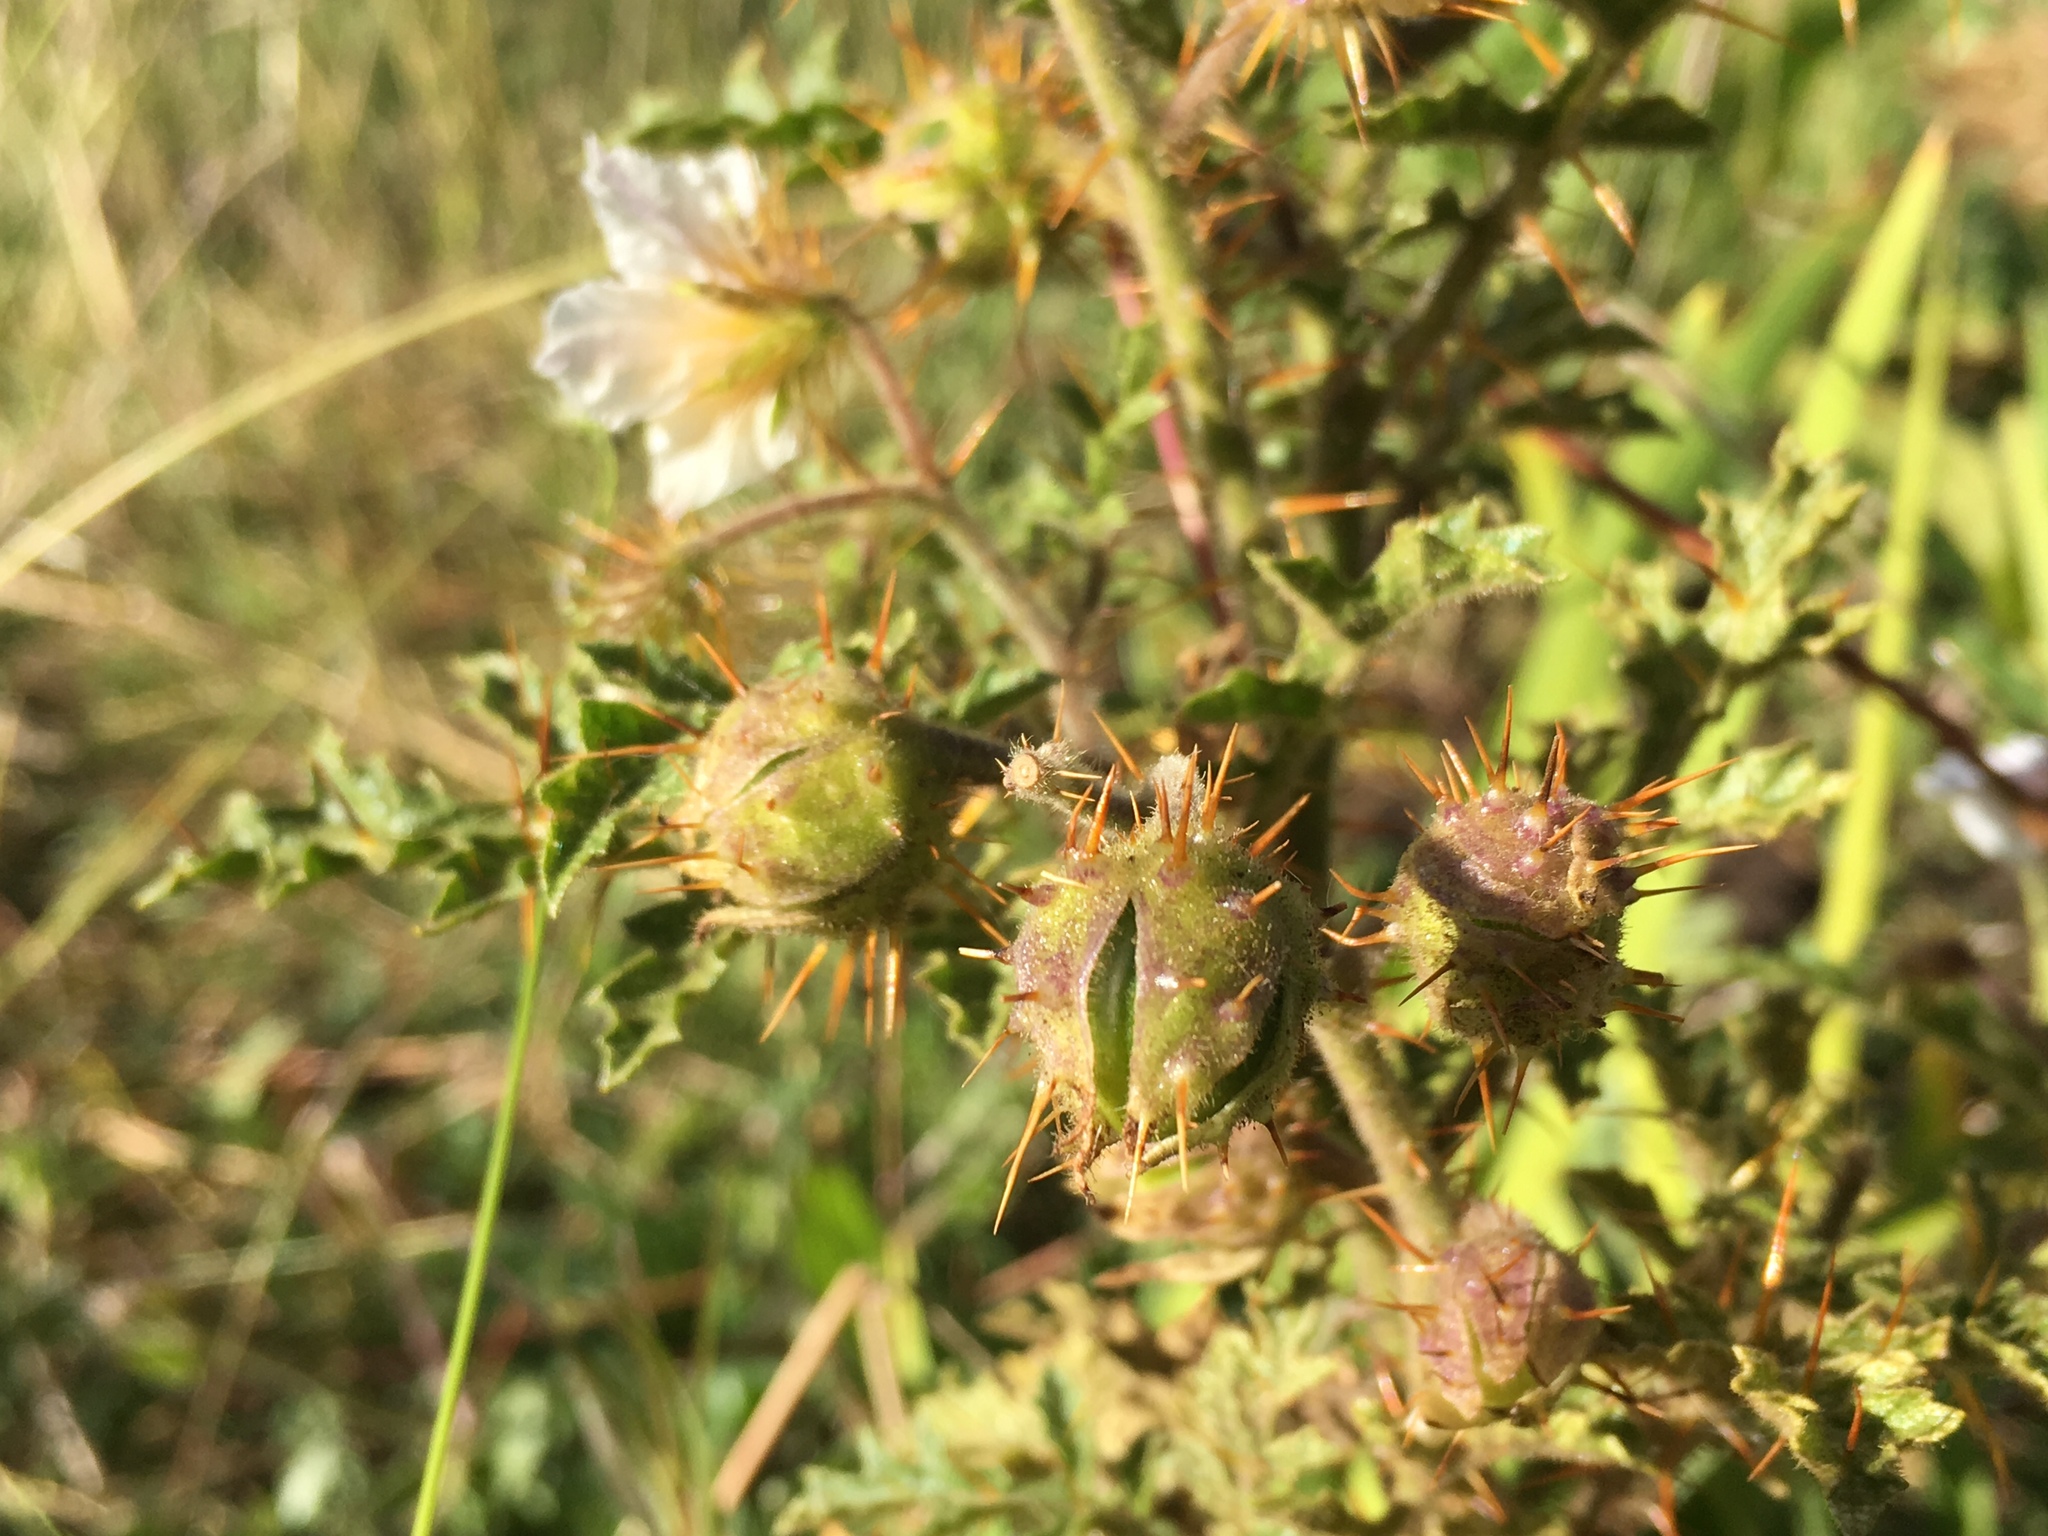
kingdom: Plantae
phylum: Tracheophyta
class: Magnoliopsida
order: Solanales
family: Solanaceae
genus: Solanum
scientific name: Solanum sisymbriifolium
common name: Red buffalo-bur
